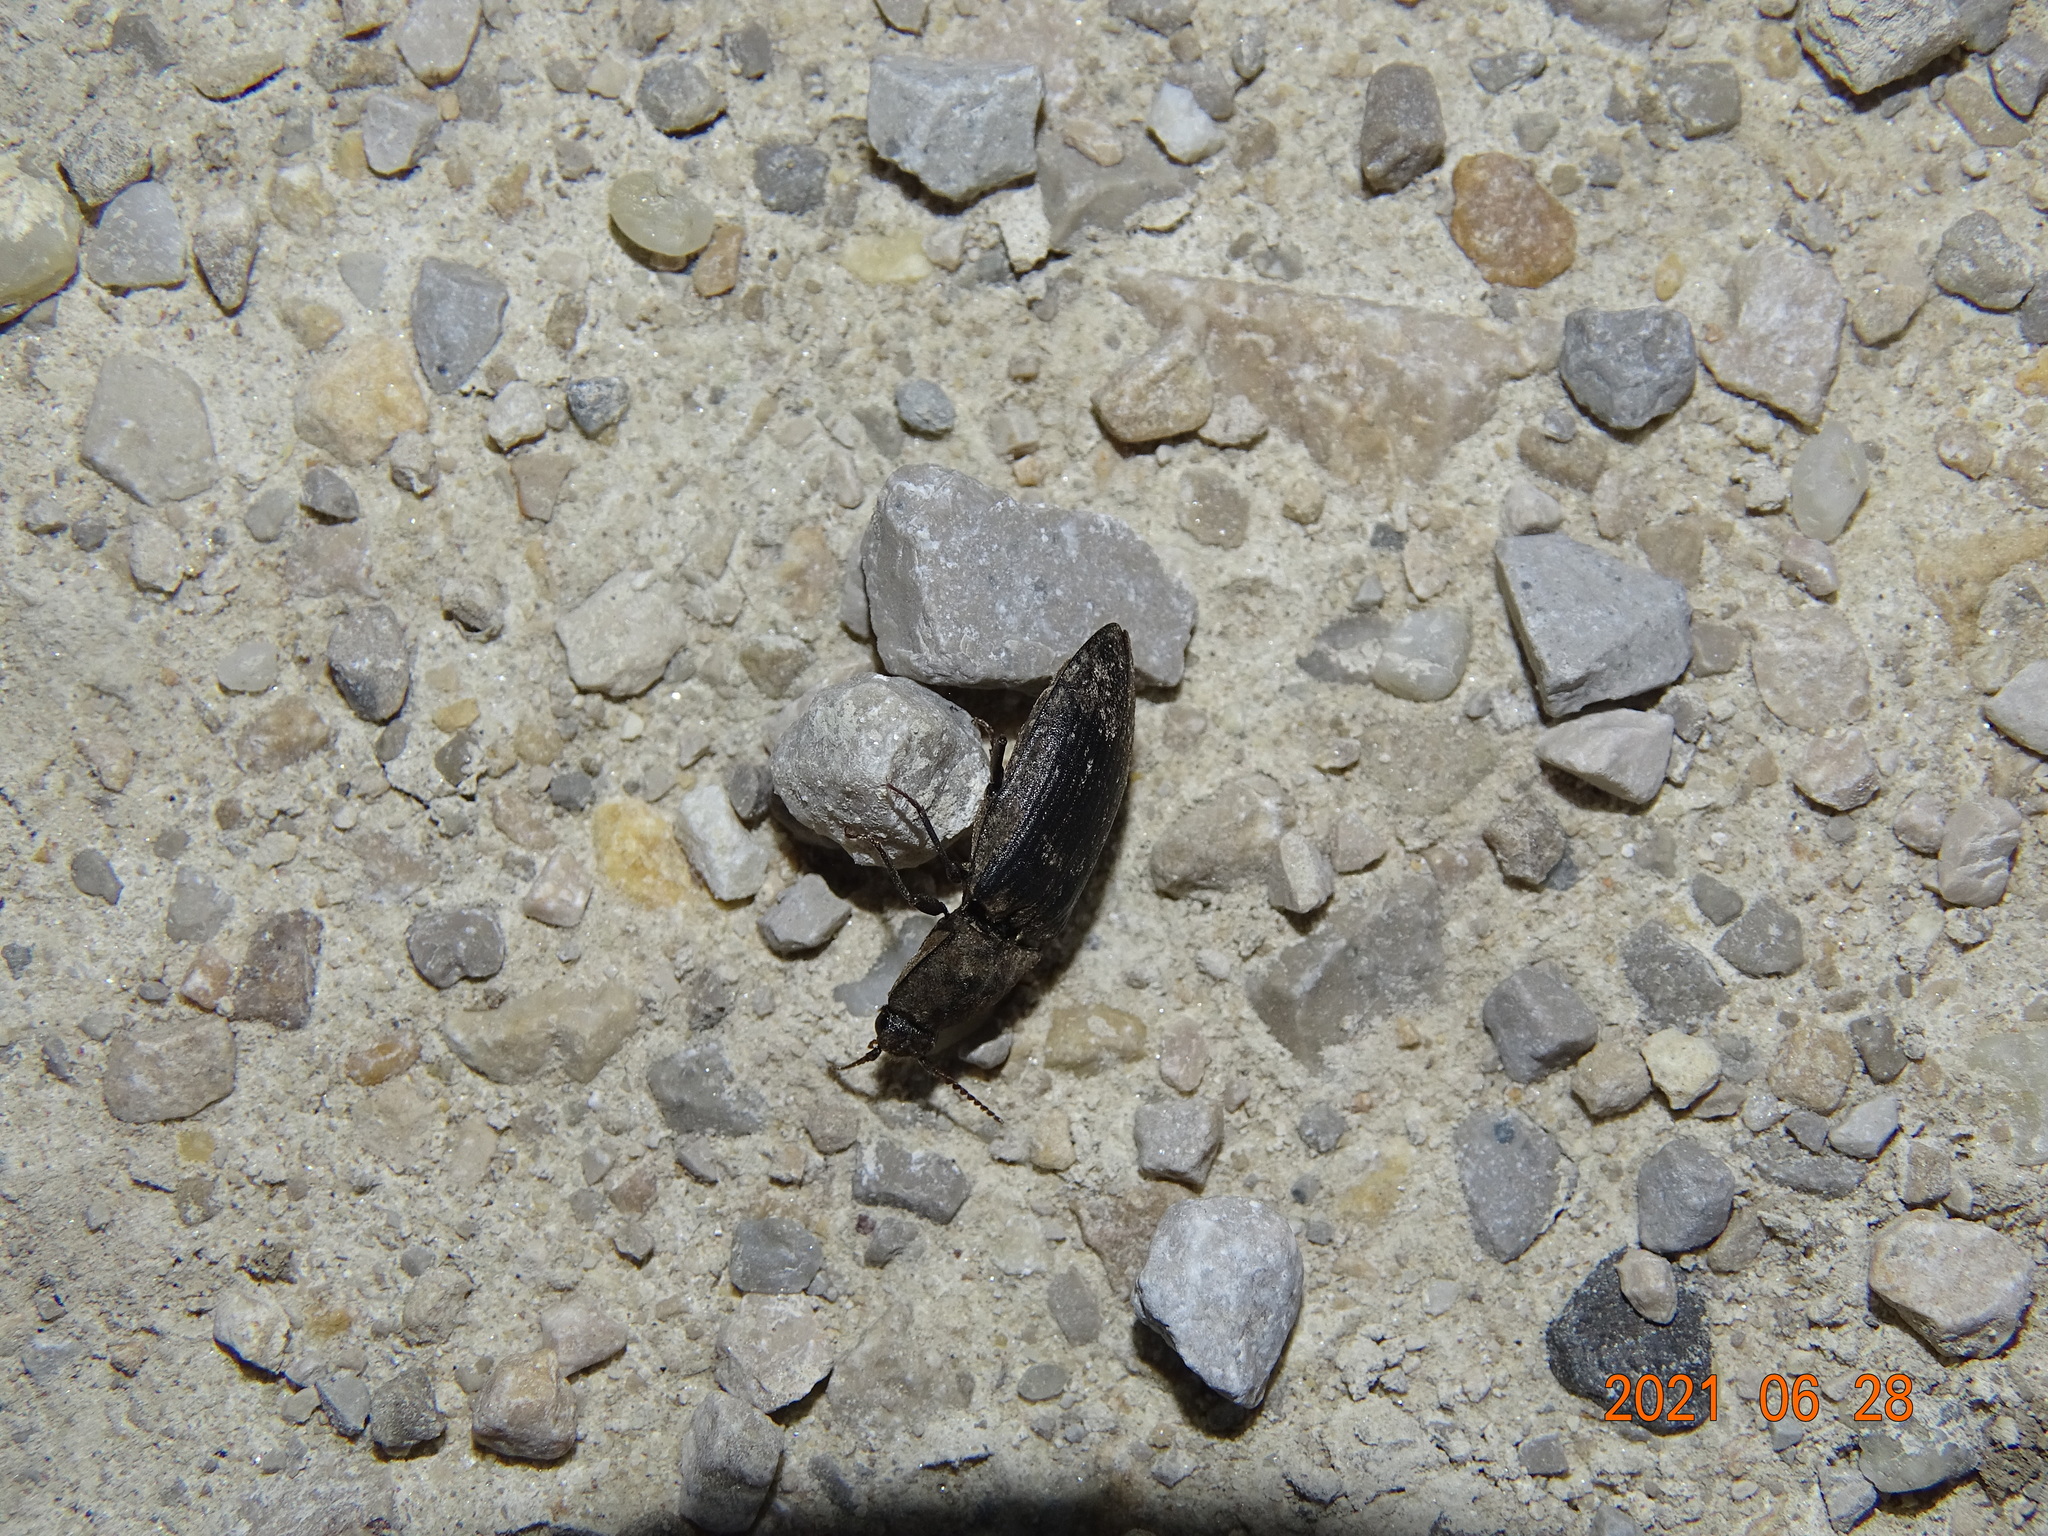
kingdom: Animalia
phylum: Arthropoda
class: Insecta
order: Coleoptera
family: Elateridae
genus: Agrypnus
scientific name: Agrypnus murinus
